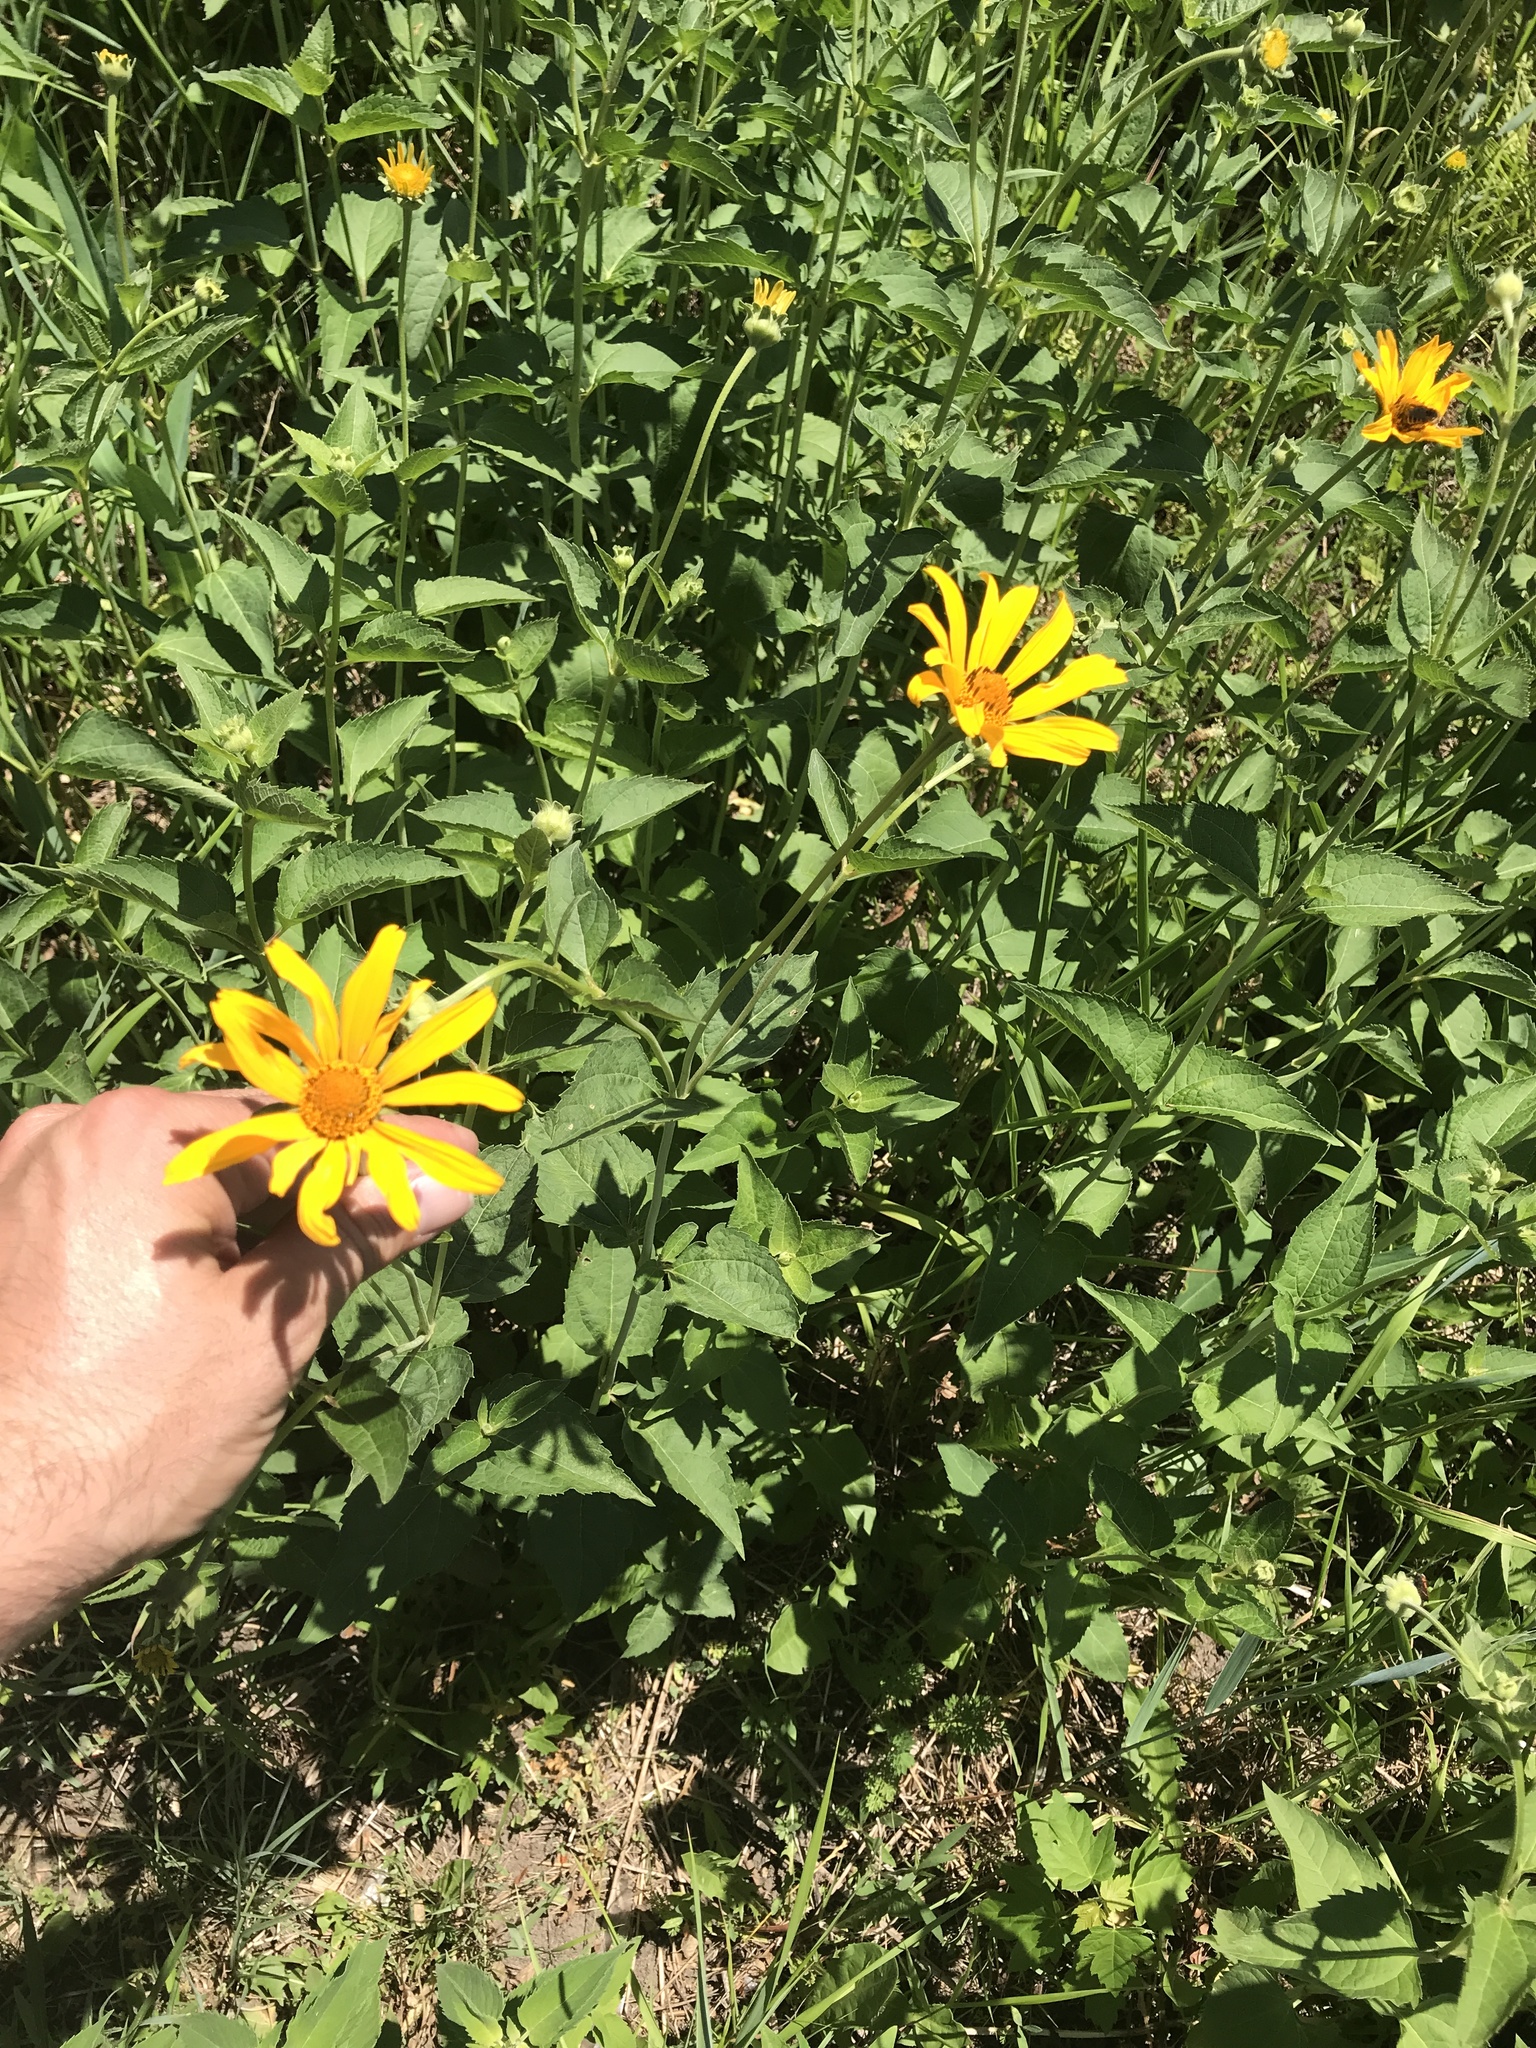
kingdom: Plantae
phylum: Tracheophyta
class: Magnoliopsida
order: Asterales
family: Asteraceae
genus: Heliopsis
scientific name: Heliopsis helianthoides
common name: False sunflower
